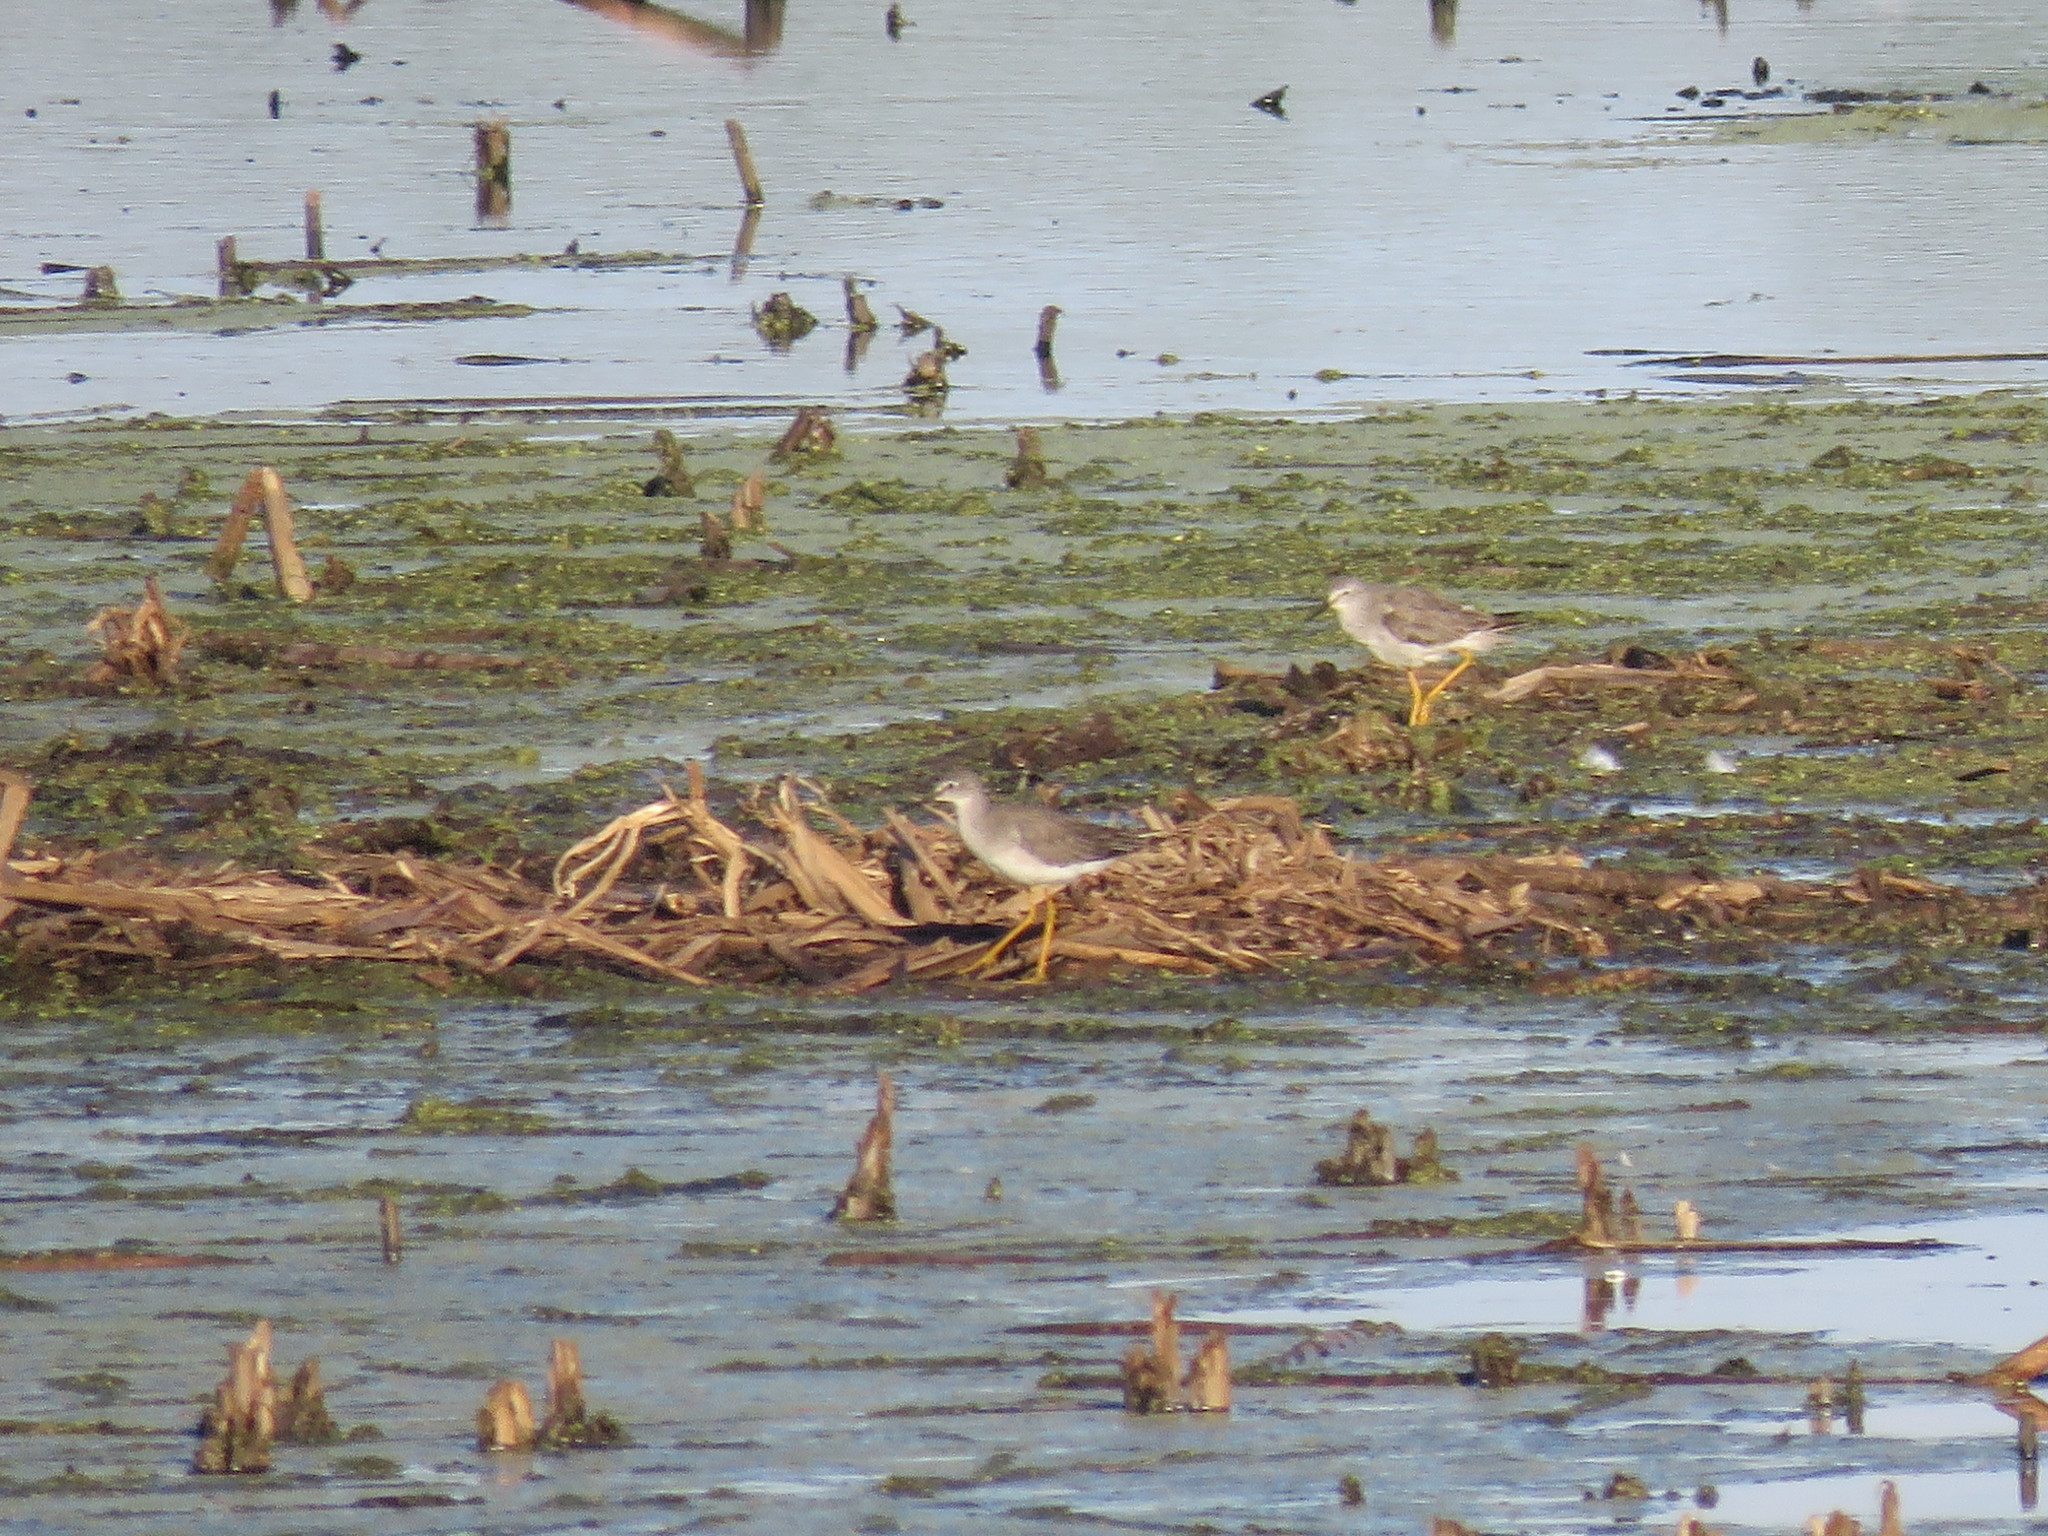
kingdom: Animalia
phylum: Chordata
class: Aves
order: Charadriiformes
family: Scolopacidae
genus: Tringa
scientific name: Tringa melanoleuca
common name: Greater yellowlegs
